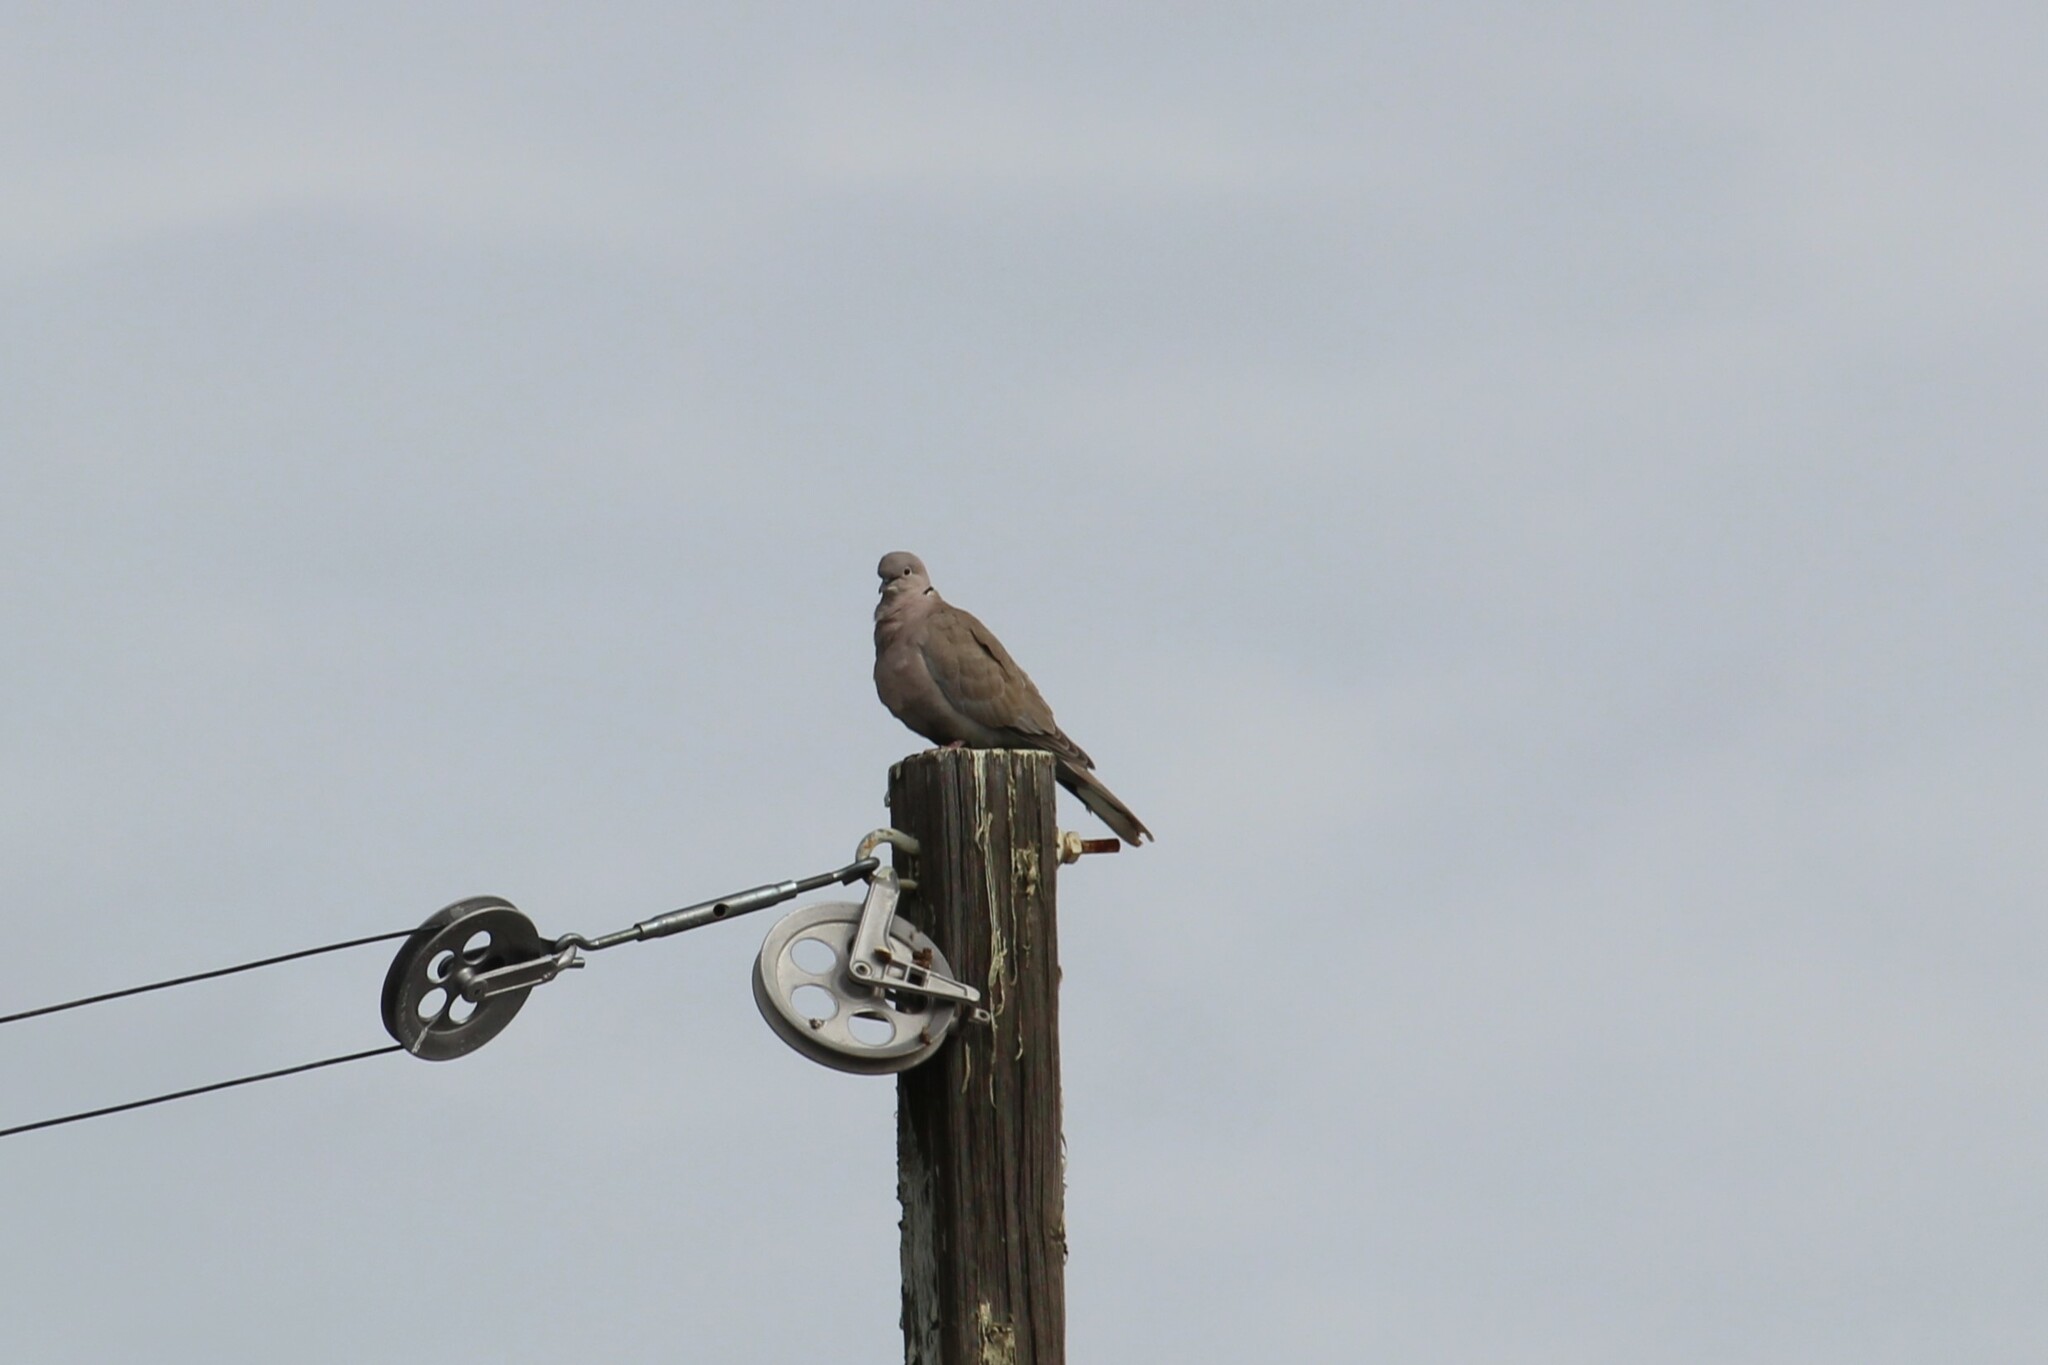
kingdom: Animalia
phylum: Chordata
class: Aves
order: Columbiformes
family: Columbidae
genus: Streptopelia
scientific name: Streptopelia decaocto
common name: Eurasian collared dove
